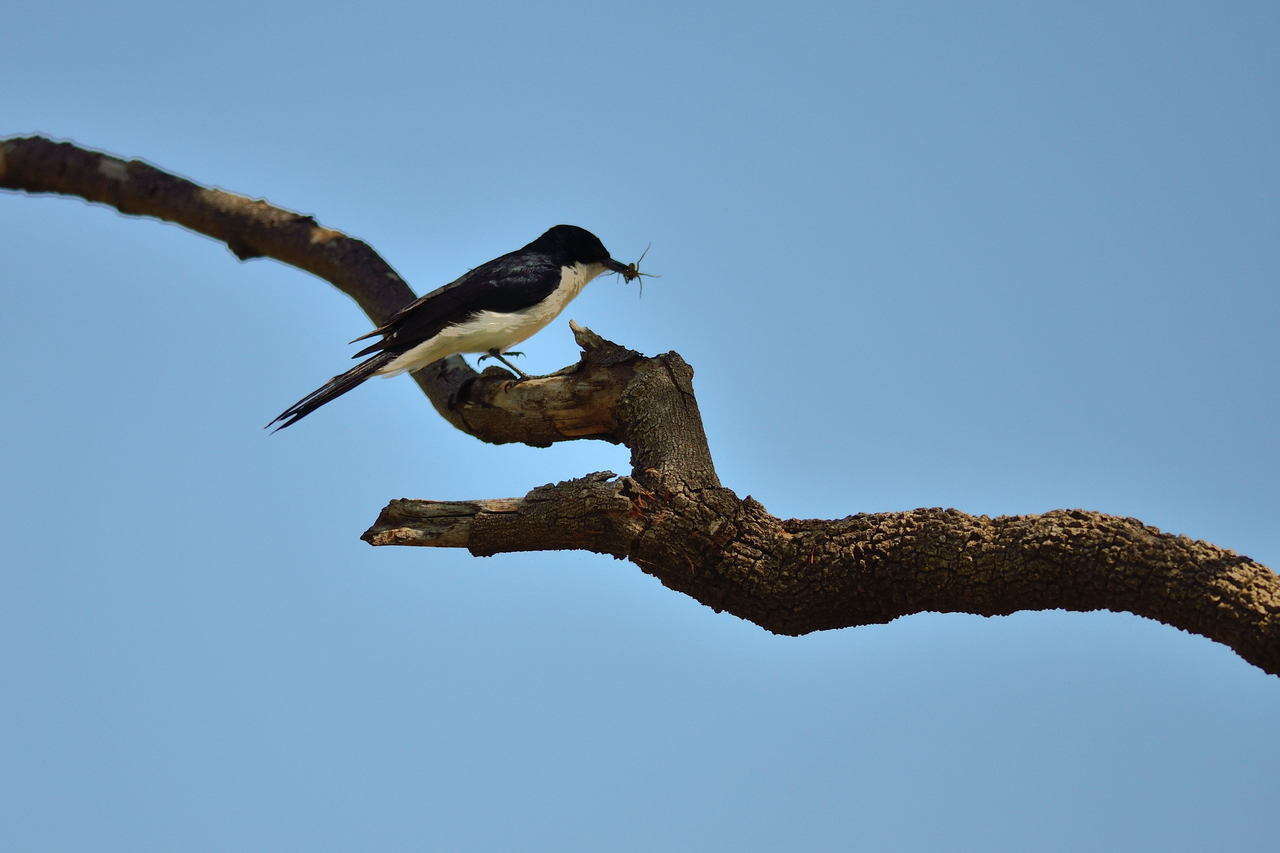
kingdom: Animalia
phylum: Chordata
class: Aves
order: Passeriformes
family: Monarchidae
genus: Myiagra
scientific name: Myiagra inquieta
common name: Restless flycatcher
